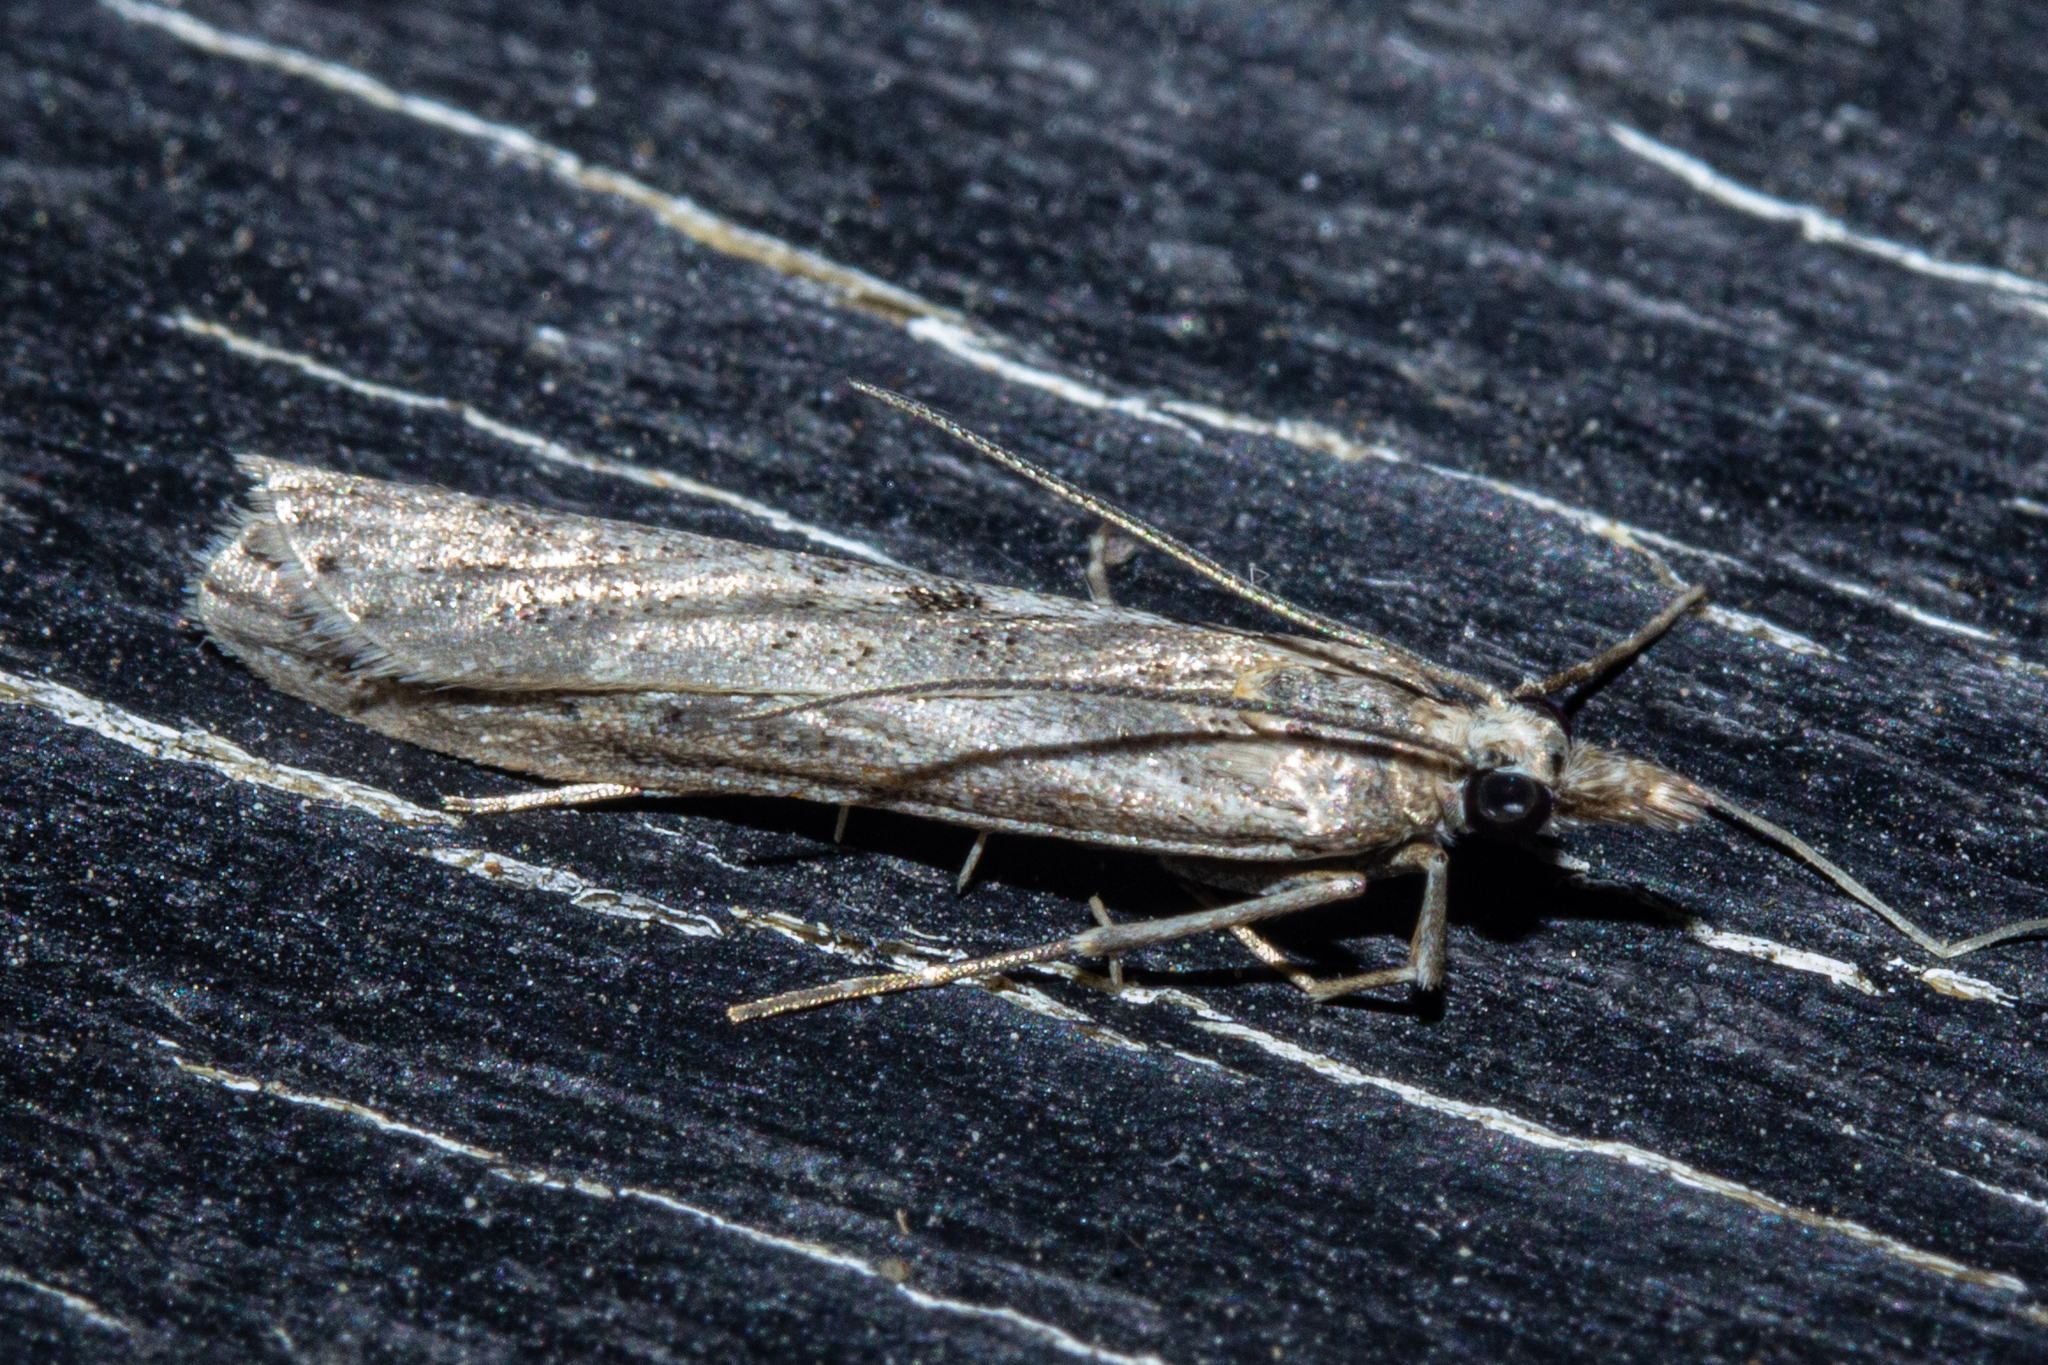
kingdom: Animalia
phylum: Arthropoda
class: Insecta
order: Lepidoptera
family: Crambidae
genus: Eudonia
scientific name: Eudonia leptalea
